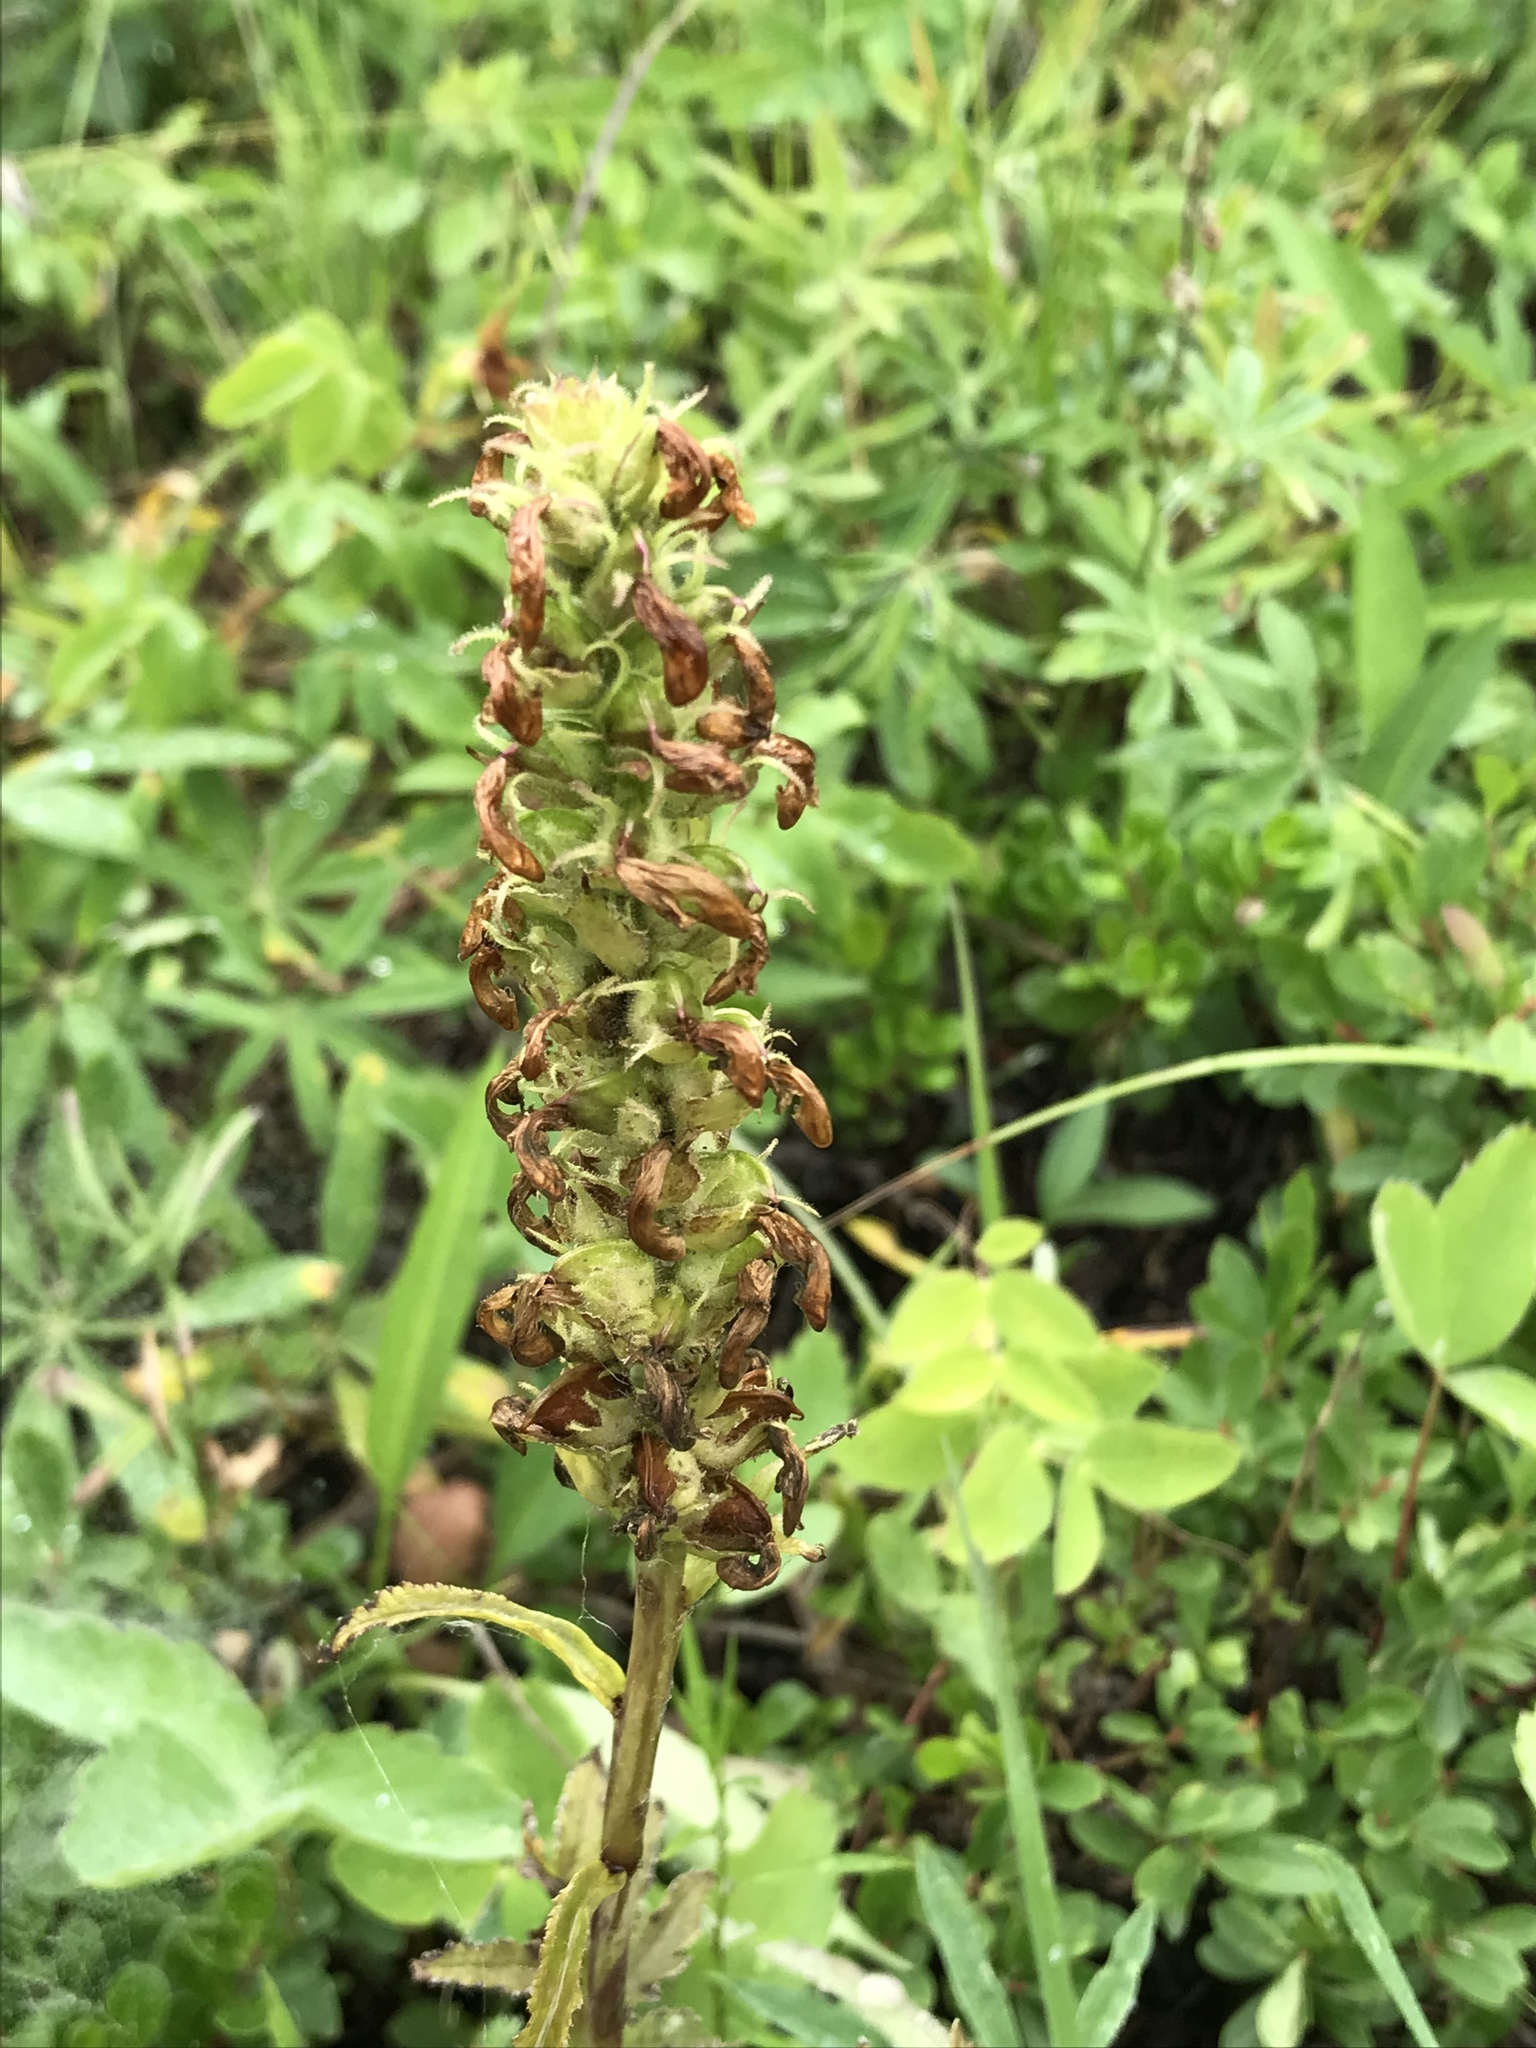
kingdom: Plantae
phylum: Tracheophyta
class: Magnoliopsida
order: Lamiales
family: Orobanchaceae
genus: Pedicularis
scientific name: Pedicularis bracteosa
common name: Bracted lousewort
